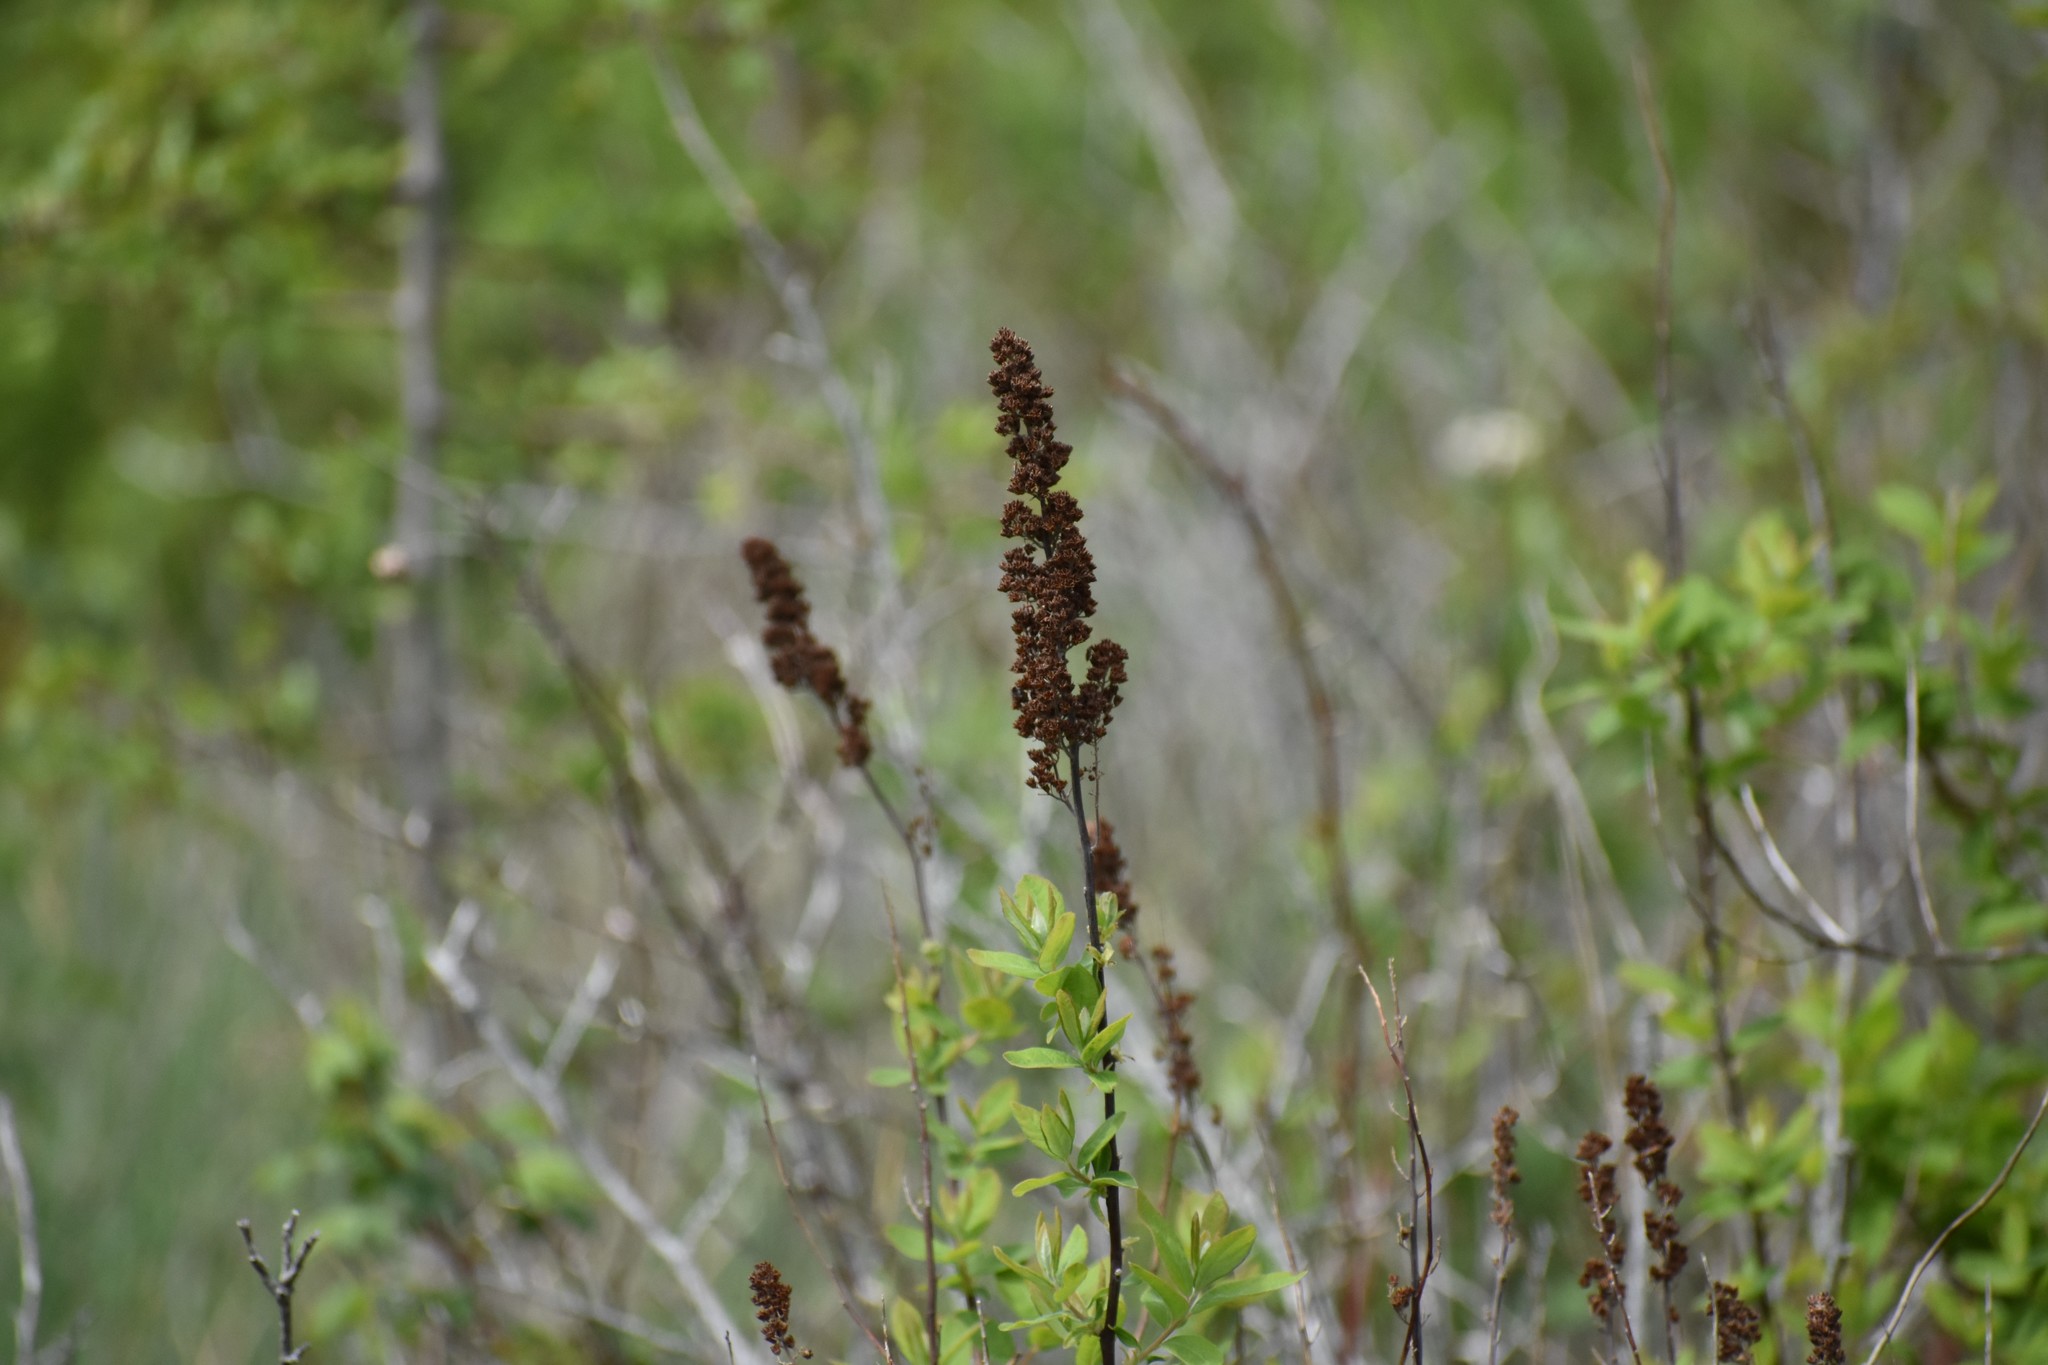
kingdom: Plantae
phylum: Tracheophyta
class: Magnoliopsida
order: Rosales
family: Rosaceae
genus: Spiraea
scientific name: Spiraea douglasii
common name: Steeplebush
